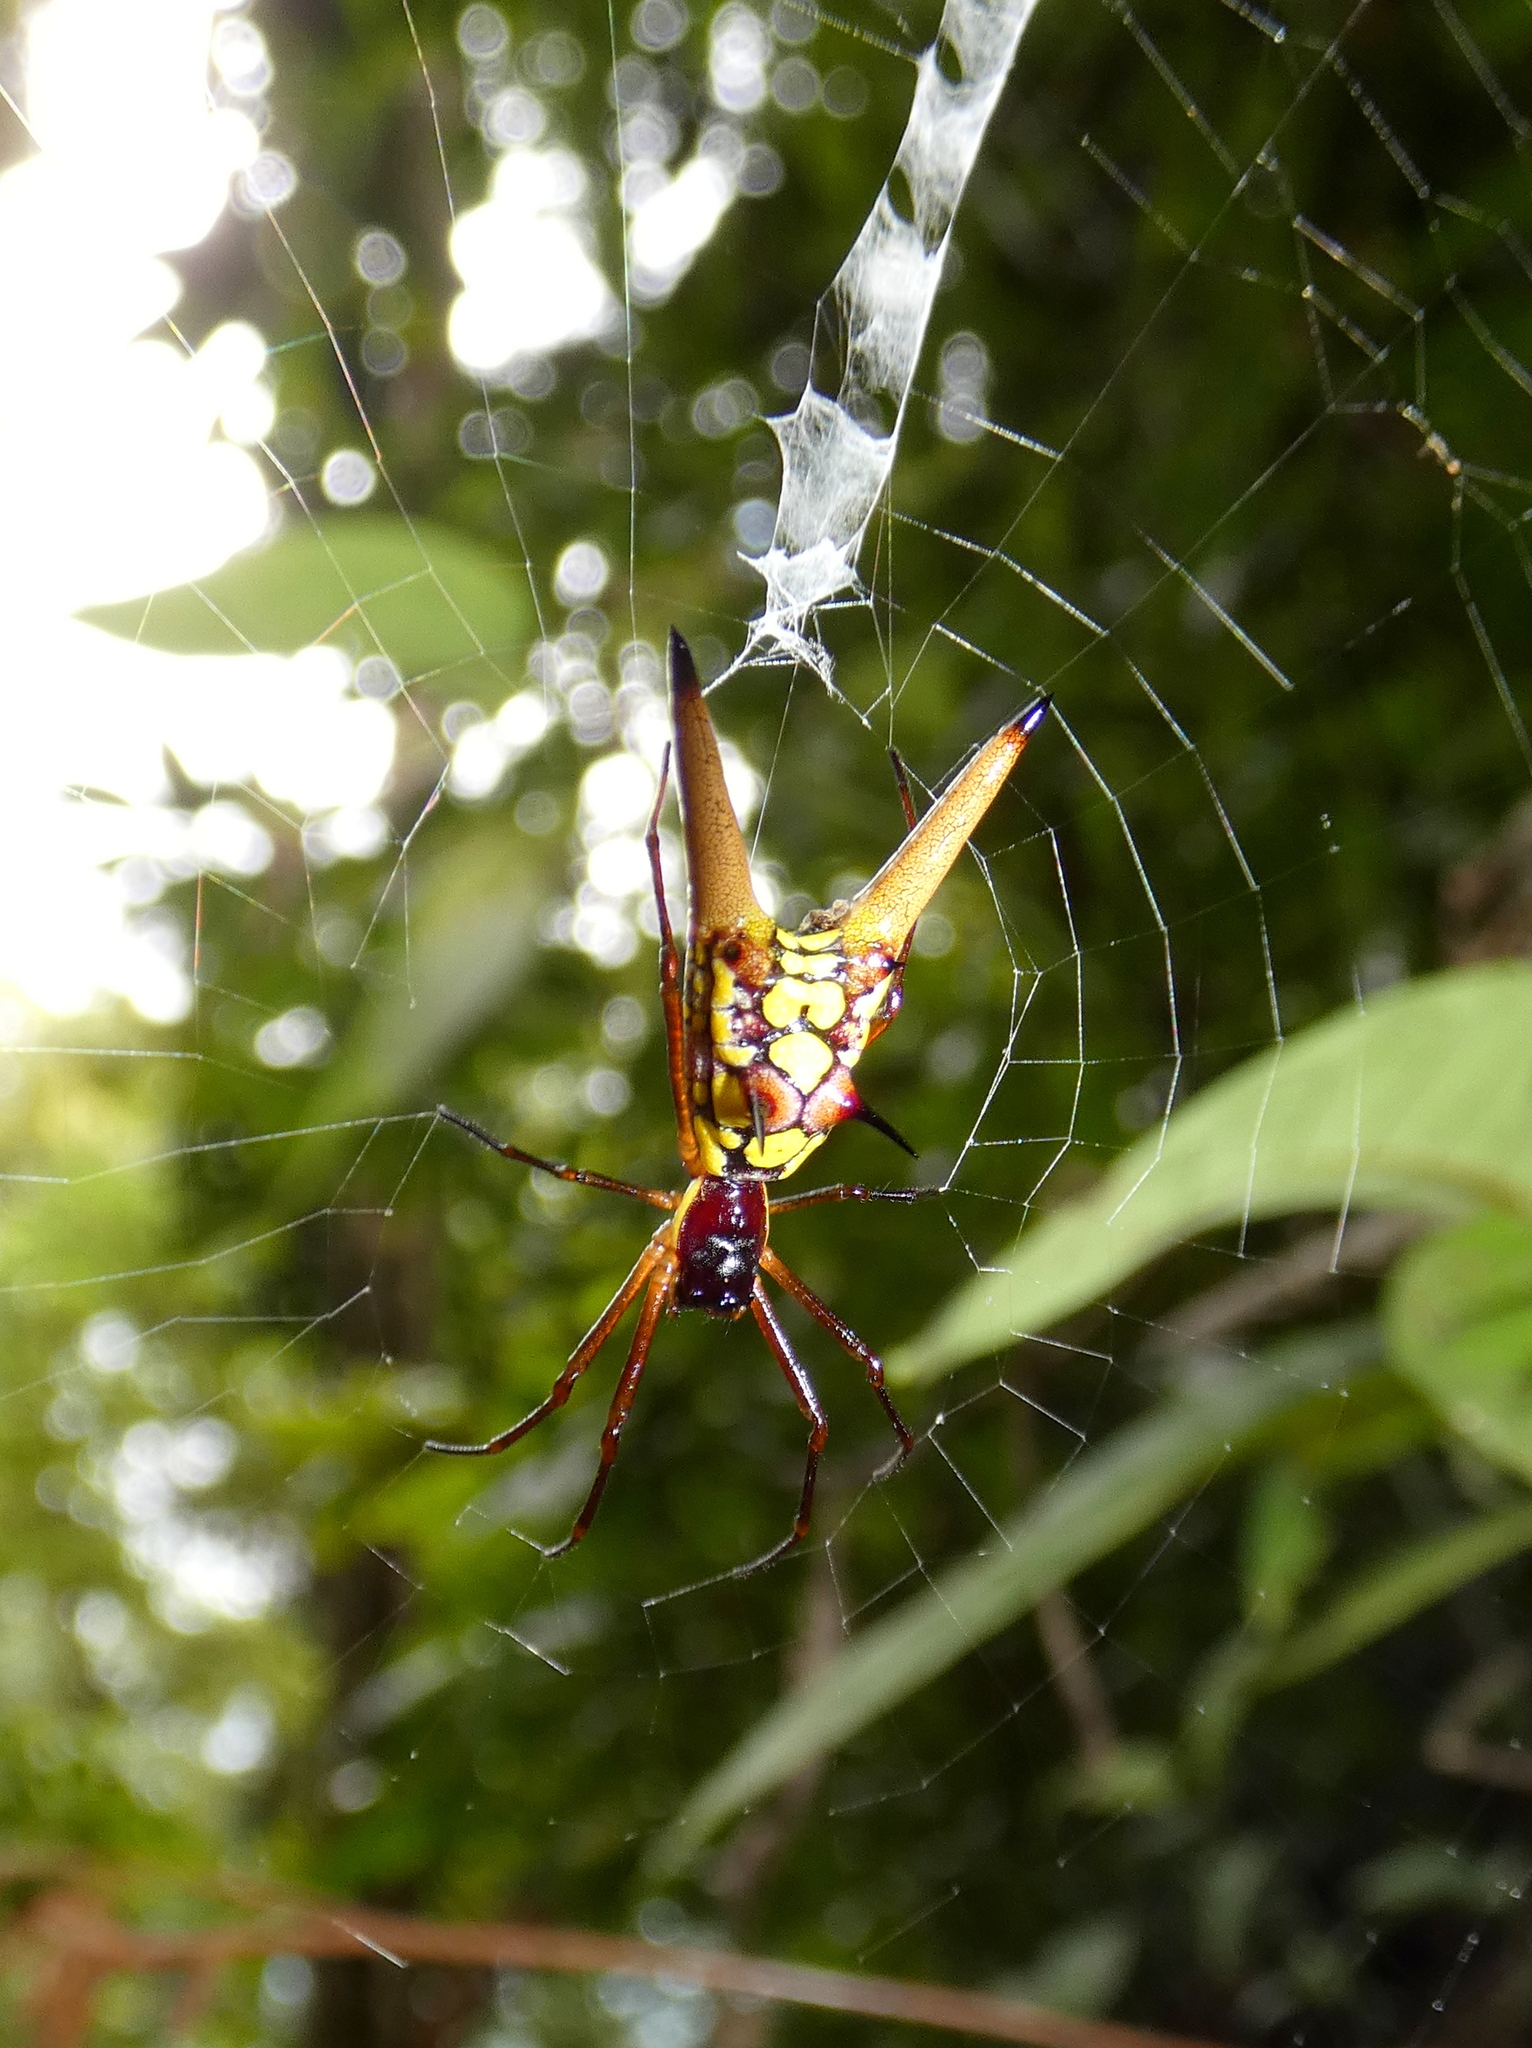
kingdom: Animalia
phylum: Arthropoda
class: Arachnida
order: Araneae
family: Araneidae
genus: Micrathena
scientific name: Micrathena brevipes
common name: Orb weavers
